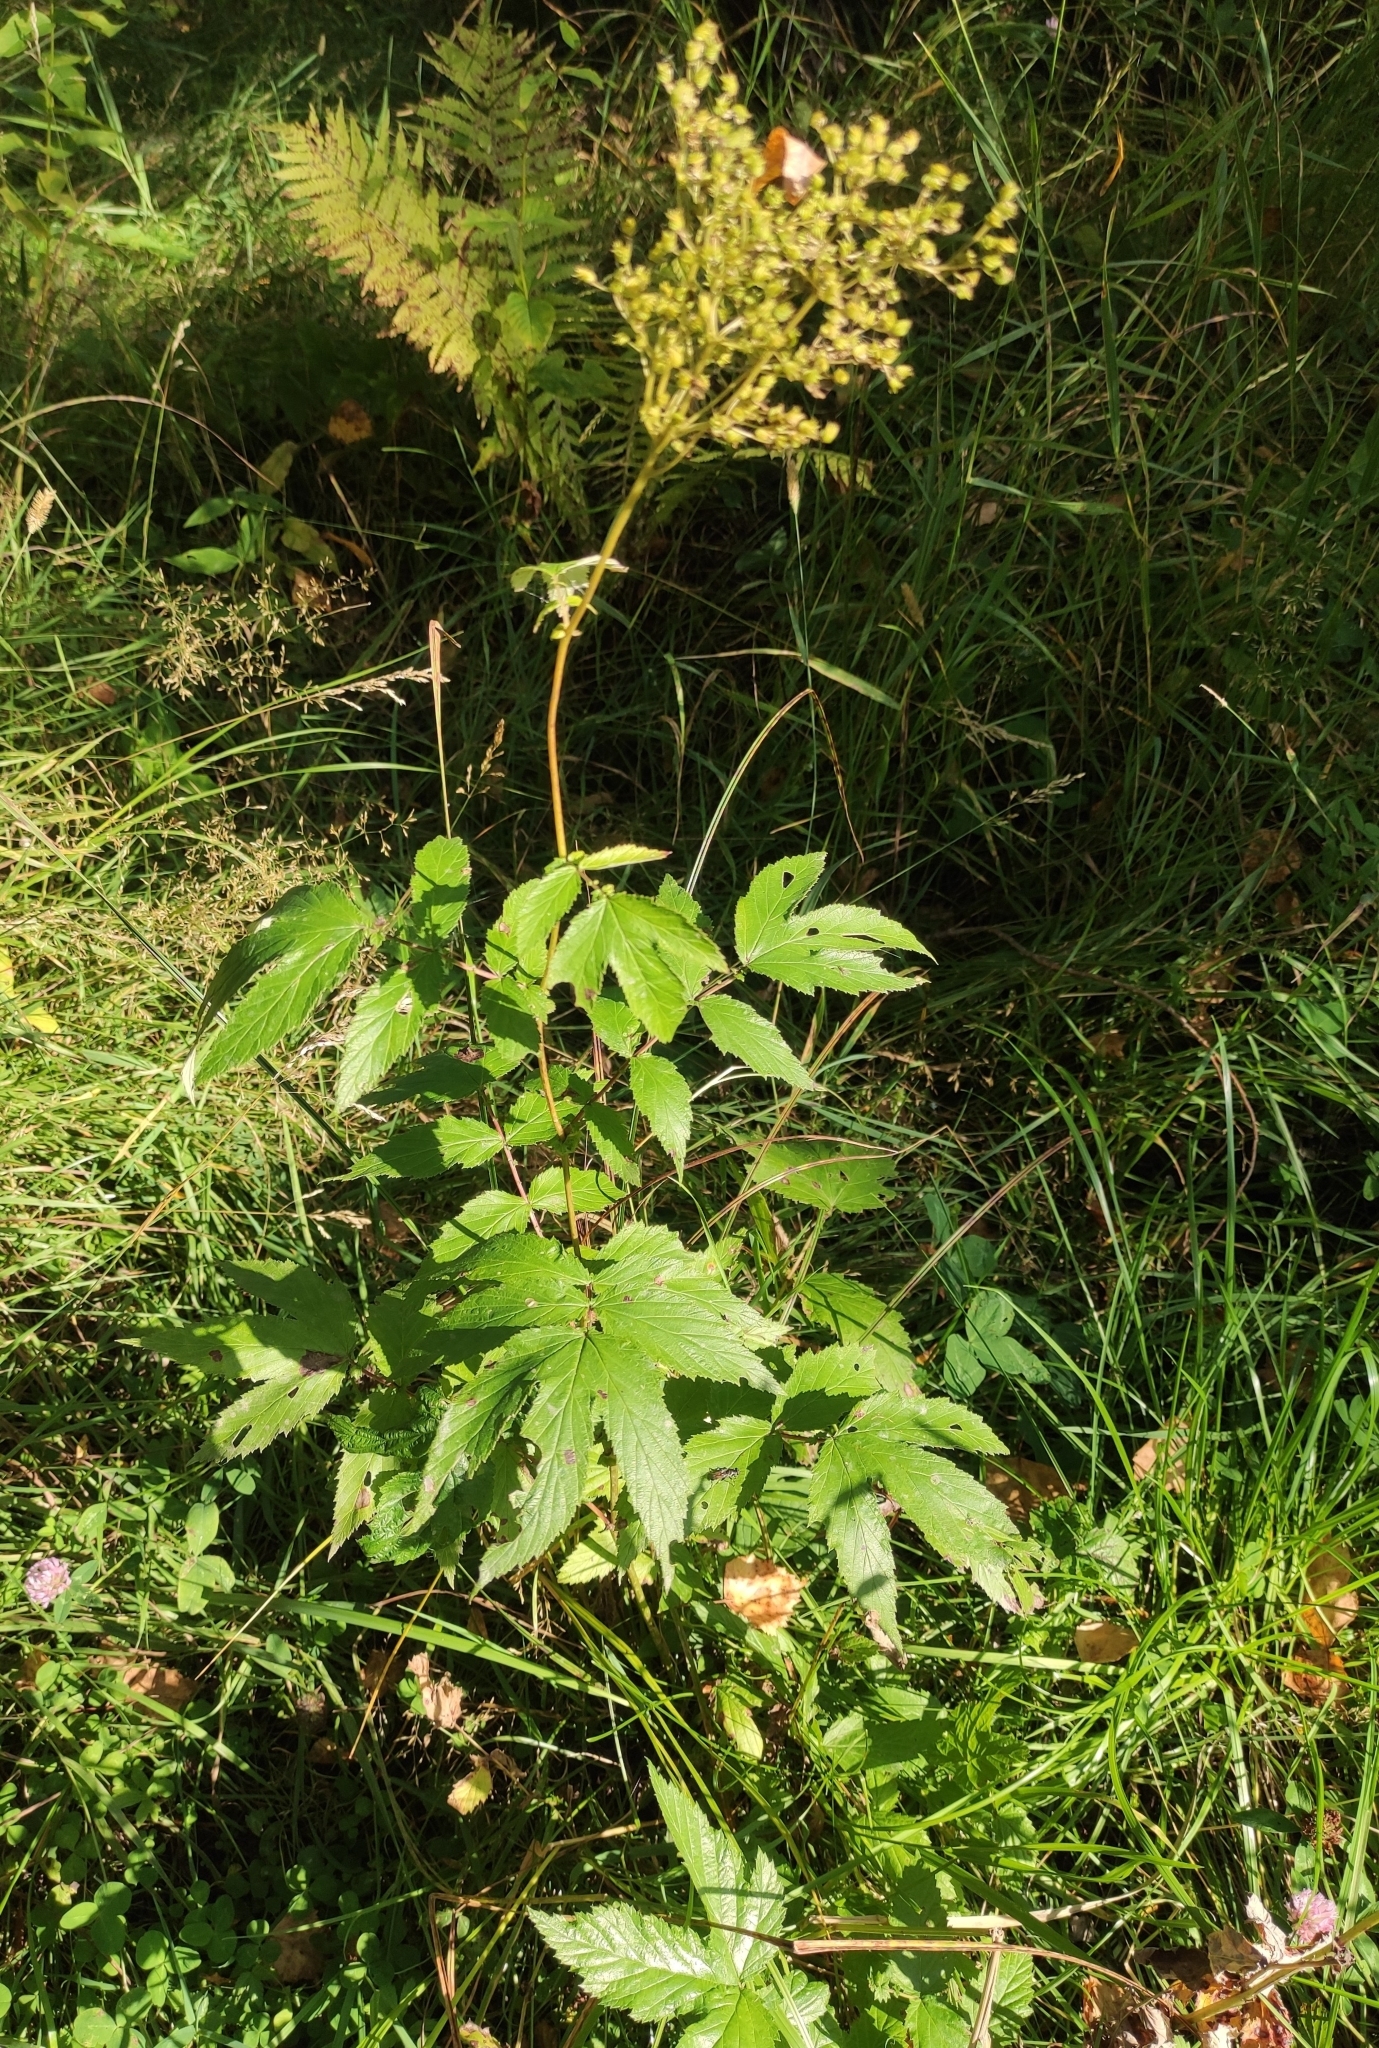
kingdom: Plantae
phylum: Tracheophyta
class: Magnoliopsida
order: Rosales
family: Rosaceae
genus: Filipendula
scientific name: Filipendula ulmaria
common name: Meadowsweet
